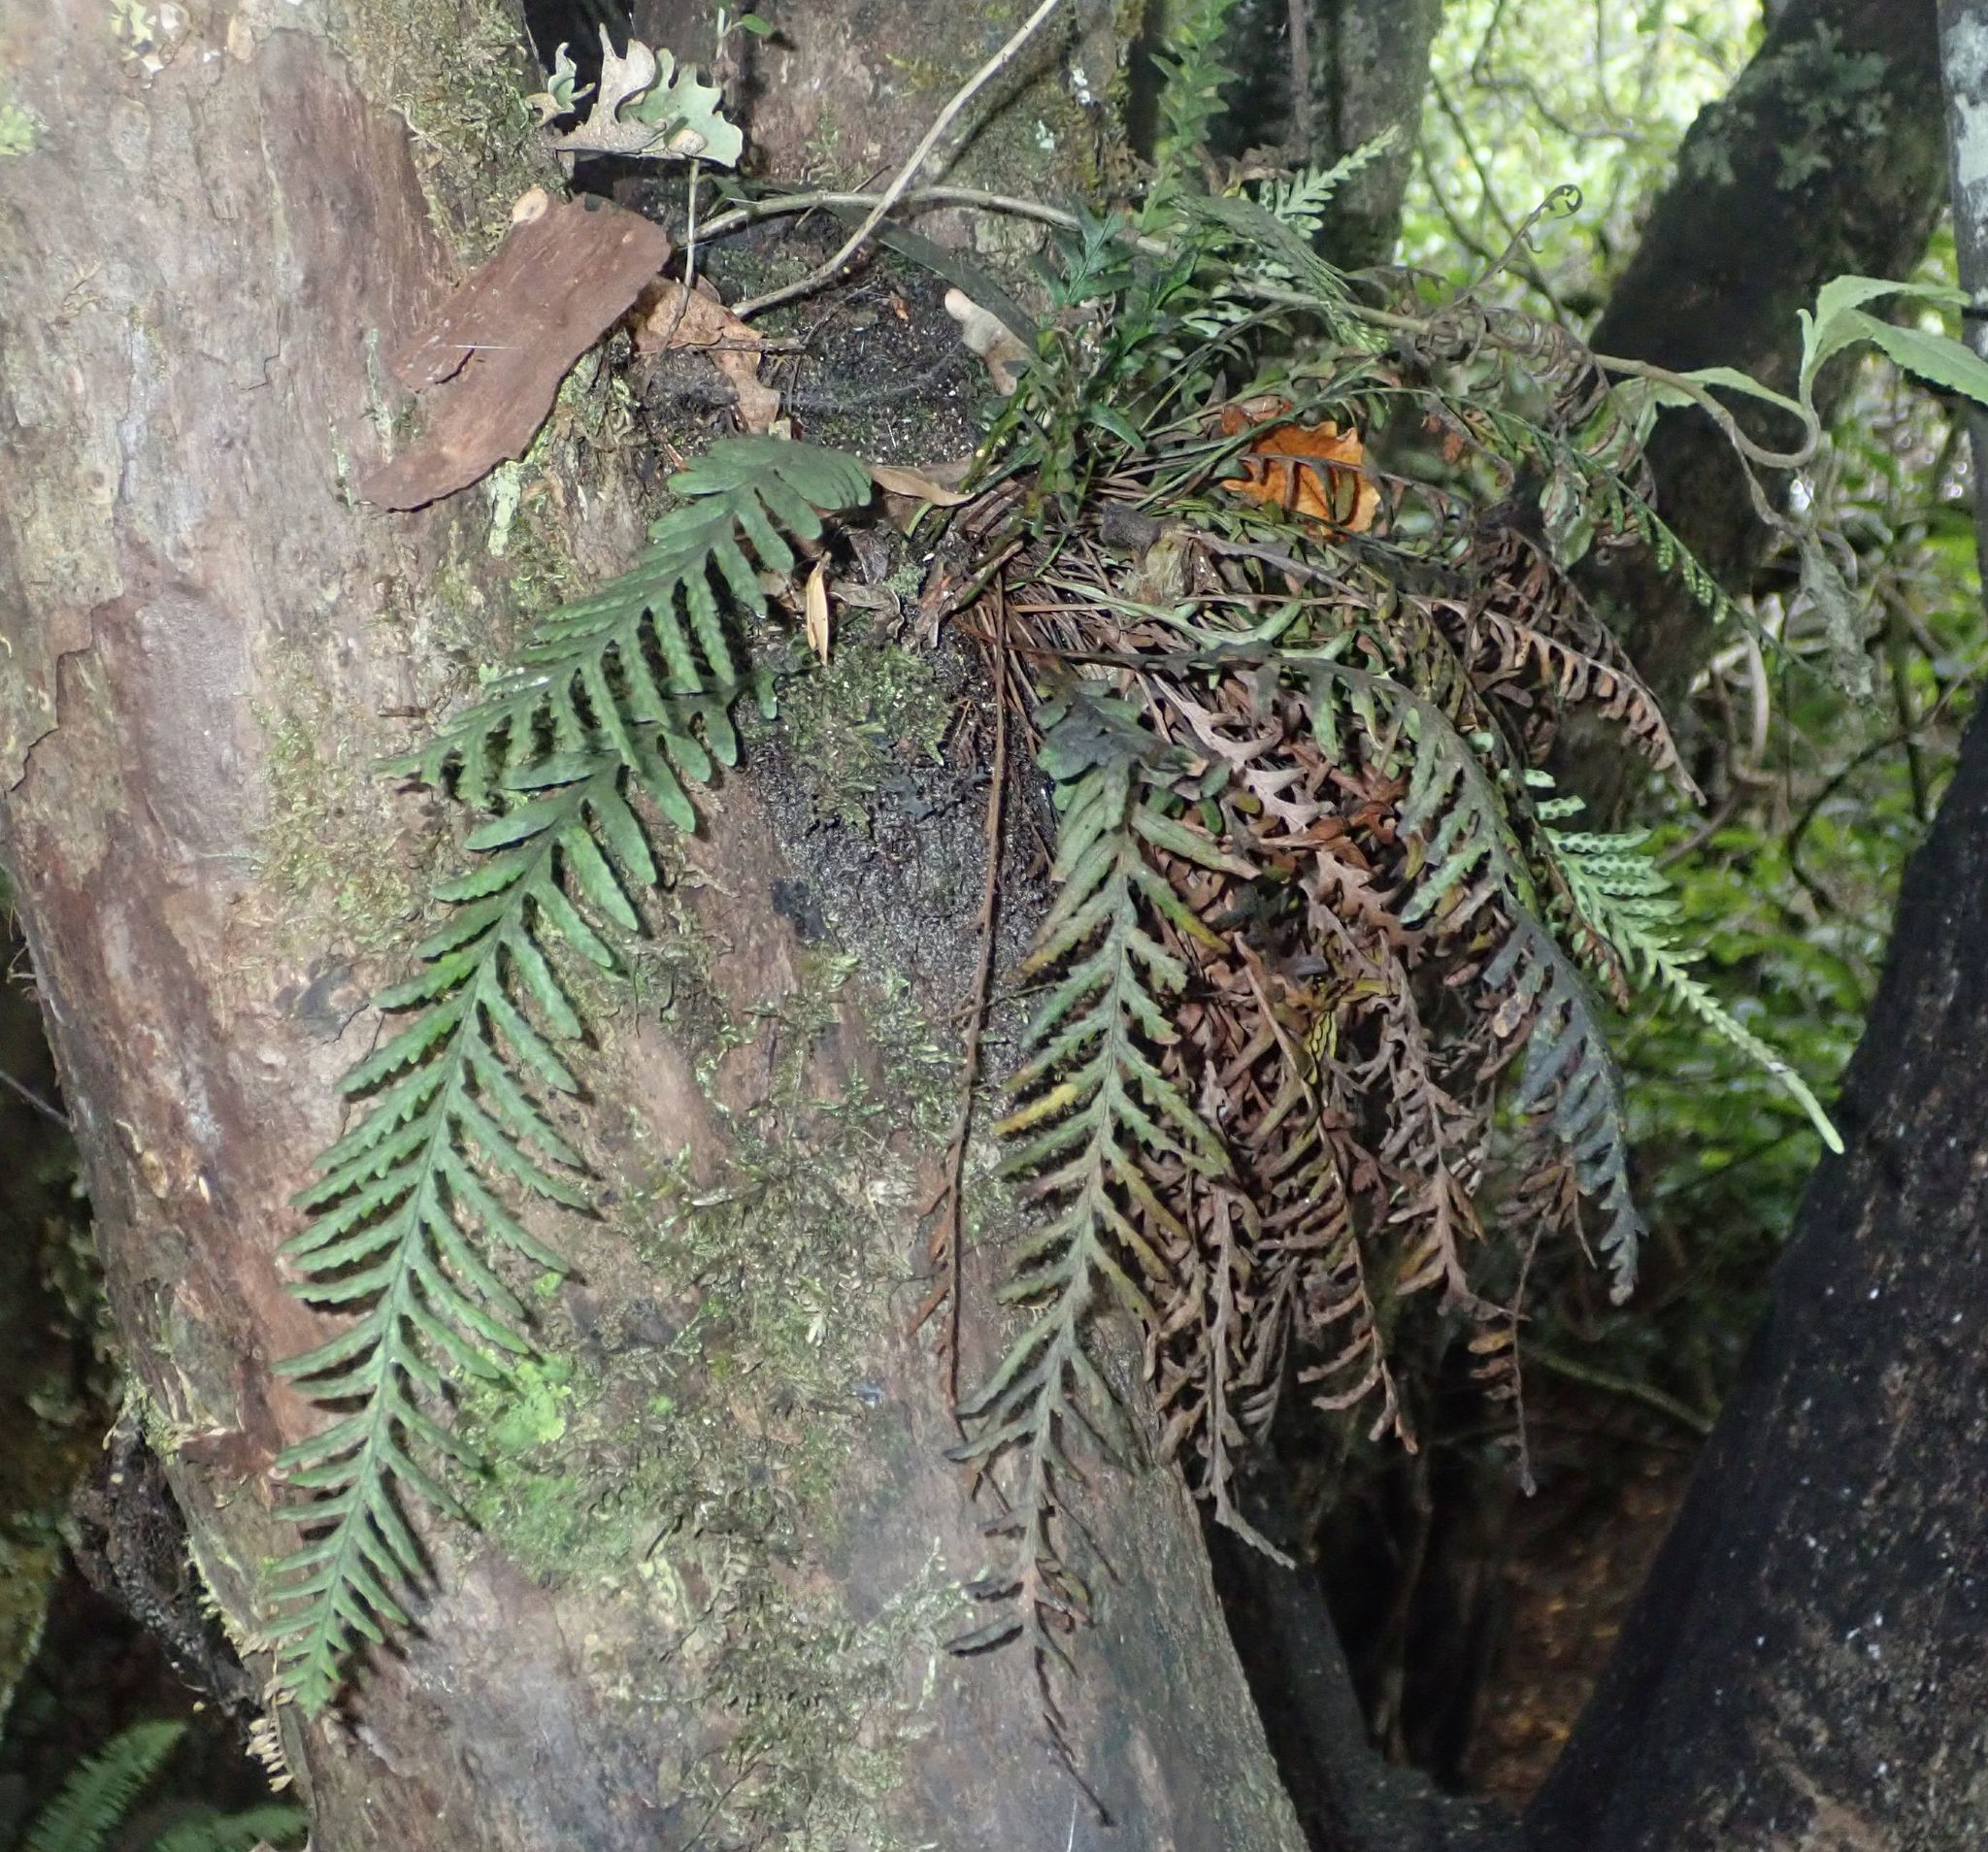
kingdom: Plantae
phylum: Tracheophyta
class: Polypodiopsida
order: Polypodiales
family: Polypodiaceae
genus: Notogrammitis
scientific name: Notogrammitis heterophylla
